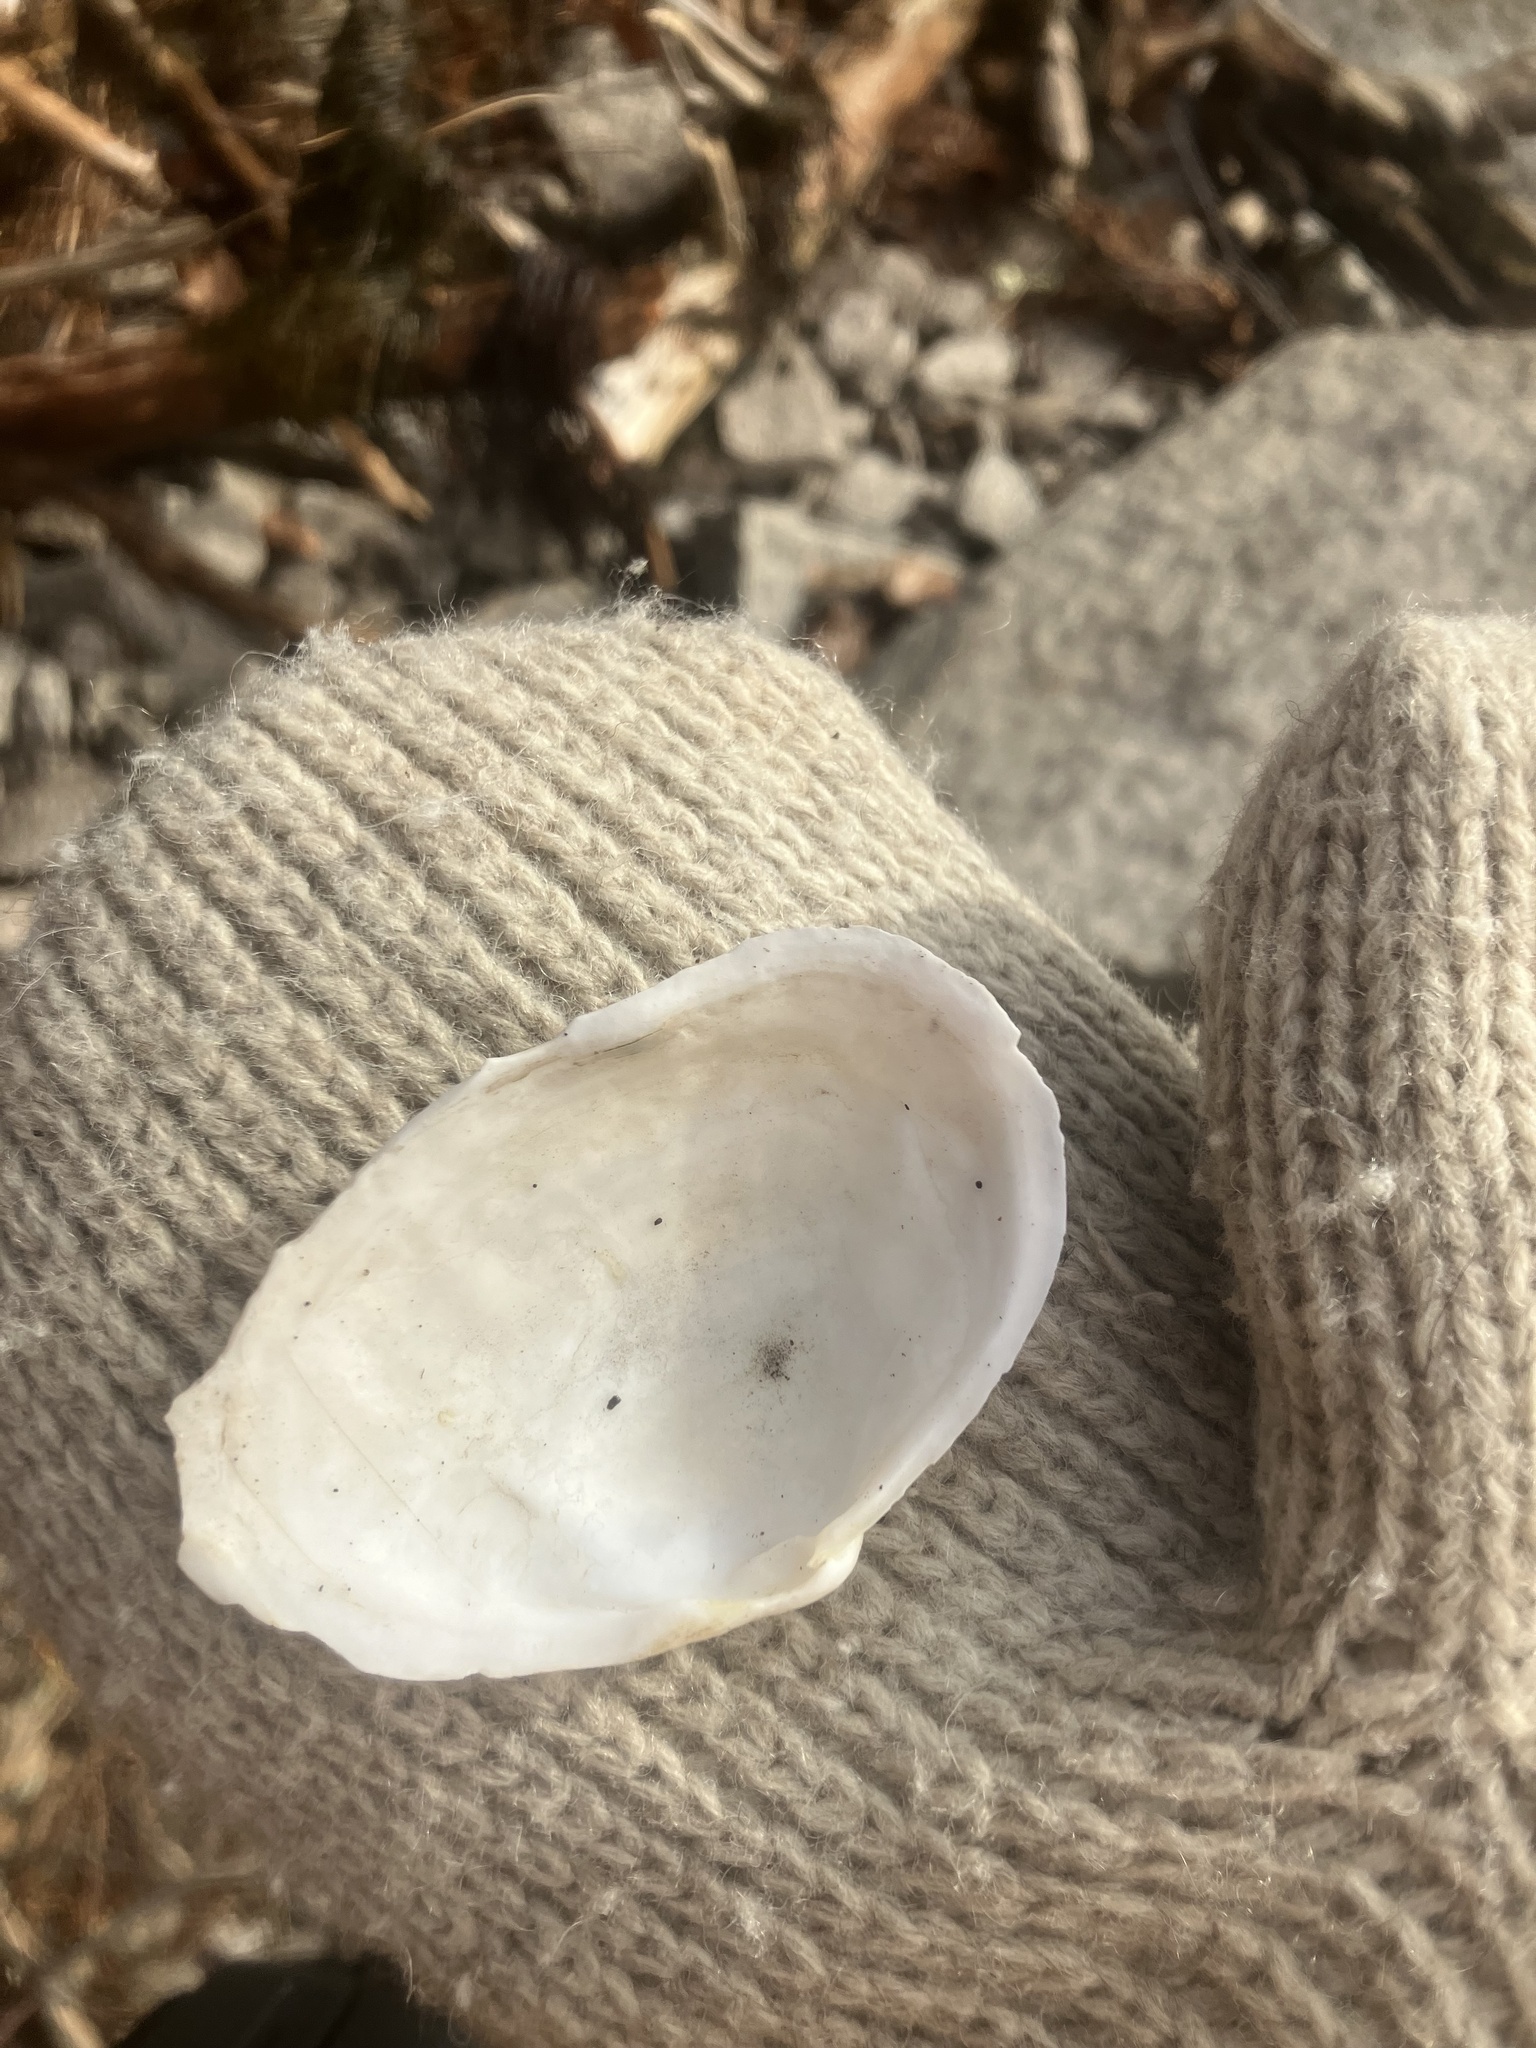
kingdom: Animalia
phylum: Mollusca
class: Bivalvia
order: Myida
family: Myidae
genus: Mya
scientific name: Mya arenaria
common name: Soft-shelled clam
